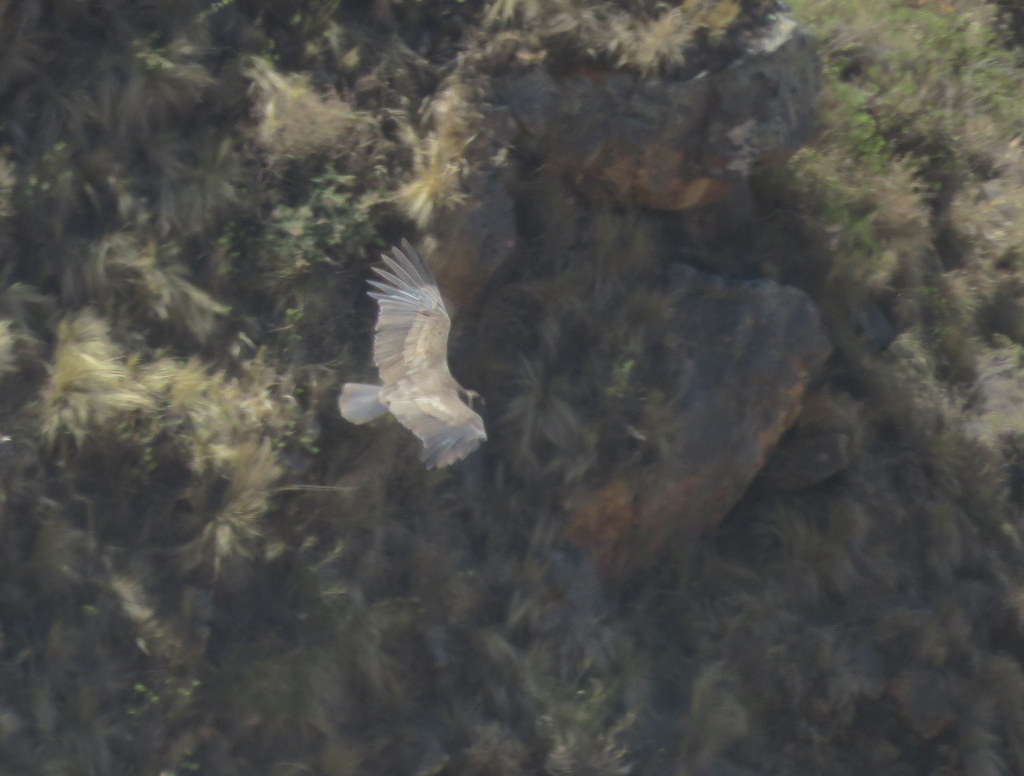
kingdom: Animalia
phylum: Chordata
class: Aves
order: Accipitriformes
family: Cathartidae
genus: Vultur
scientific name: Vultur gryphus
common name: Andean condor
